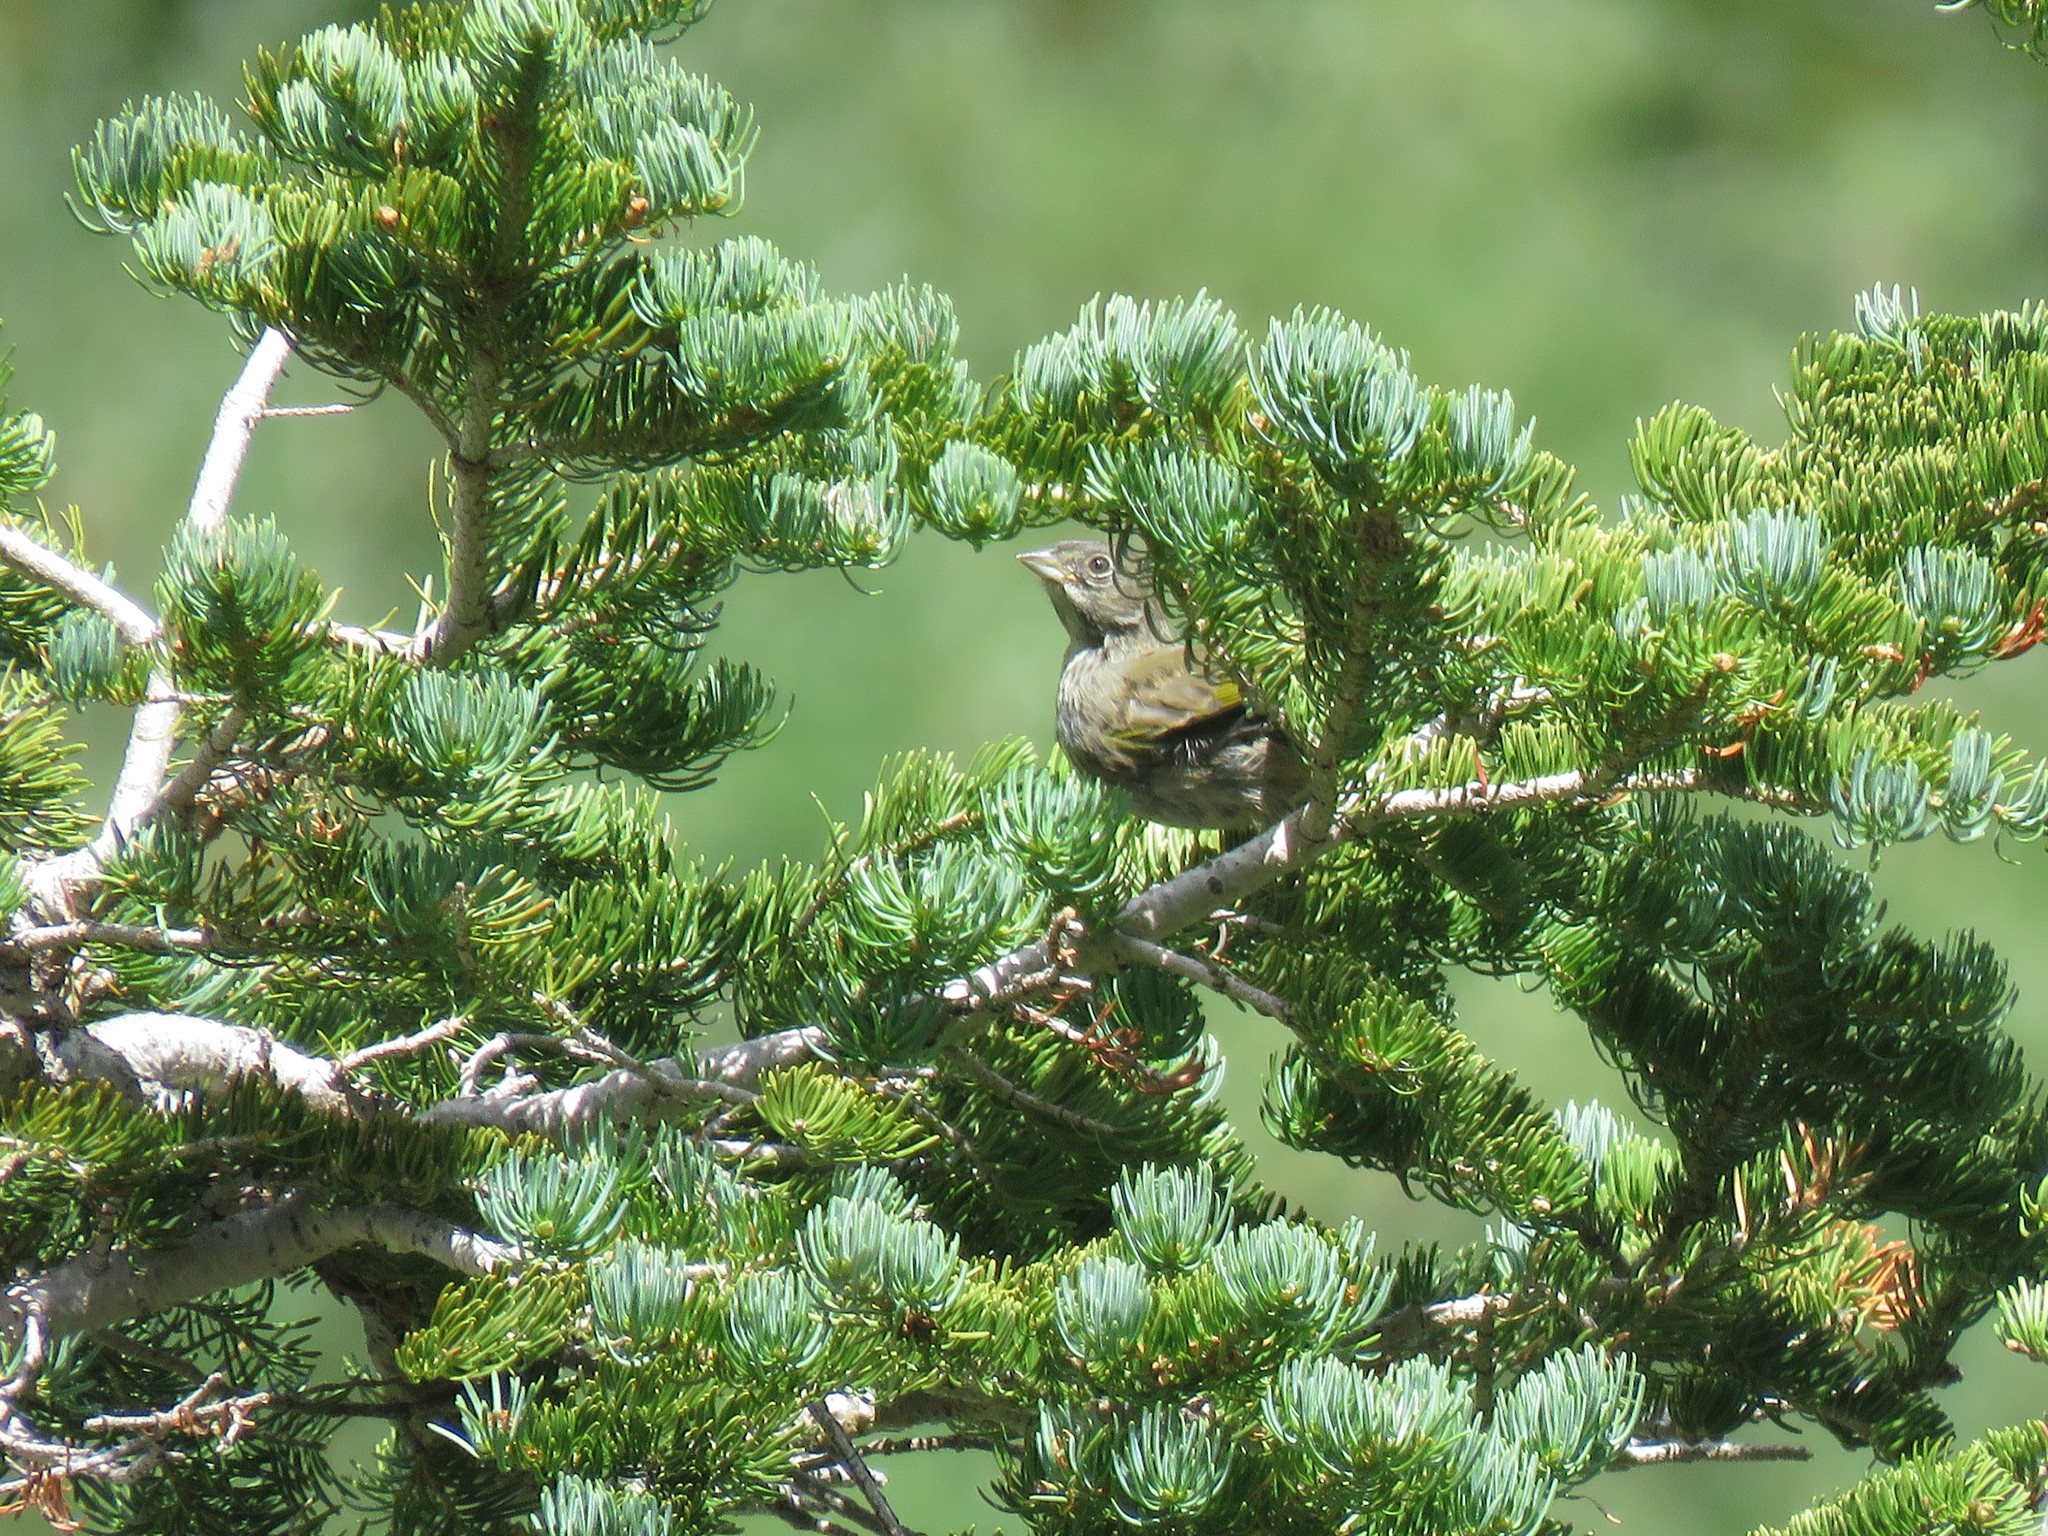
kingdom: Animalia
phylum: Chordata
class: Aves
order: Passeriformes
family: Passerellidae
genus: Pipilo
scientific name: Pipilo chlorurus
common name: Green-tailed towhee
